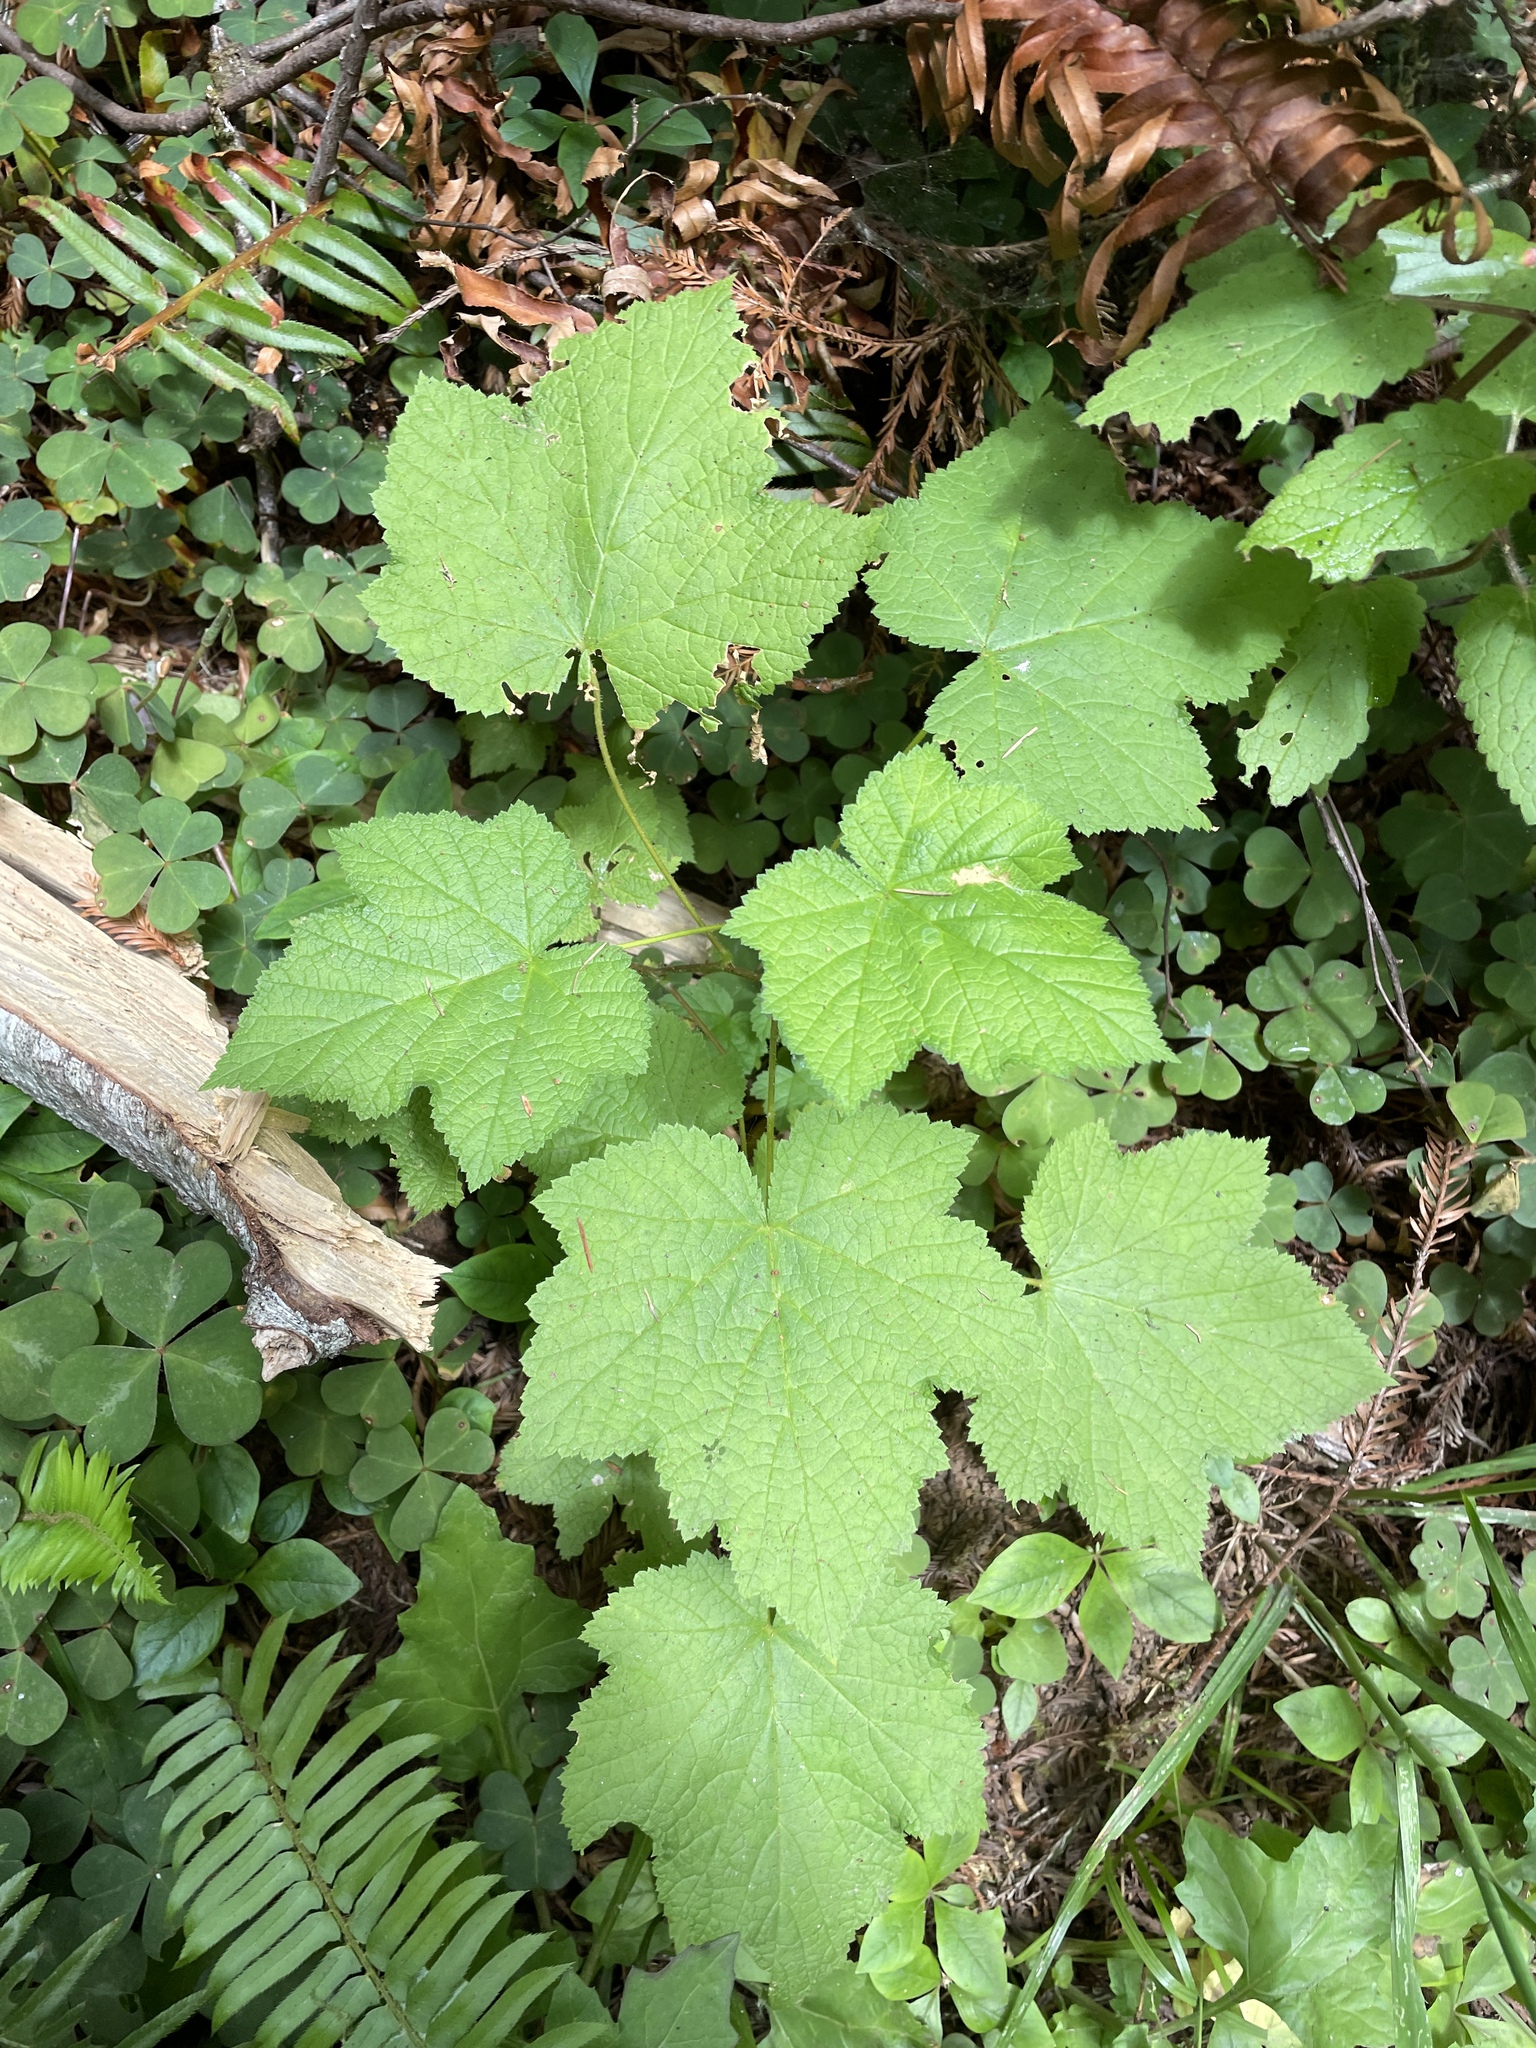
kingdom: Plantae
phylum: Tracheophyta
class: Magnoliopsida
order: Rosales
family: Rosaceae
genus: Rubus
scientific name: Rubus parviflorus
